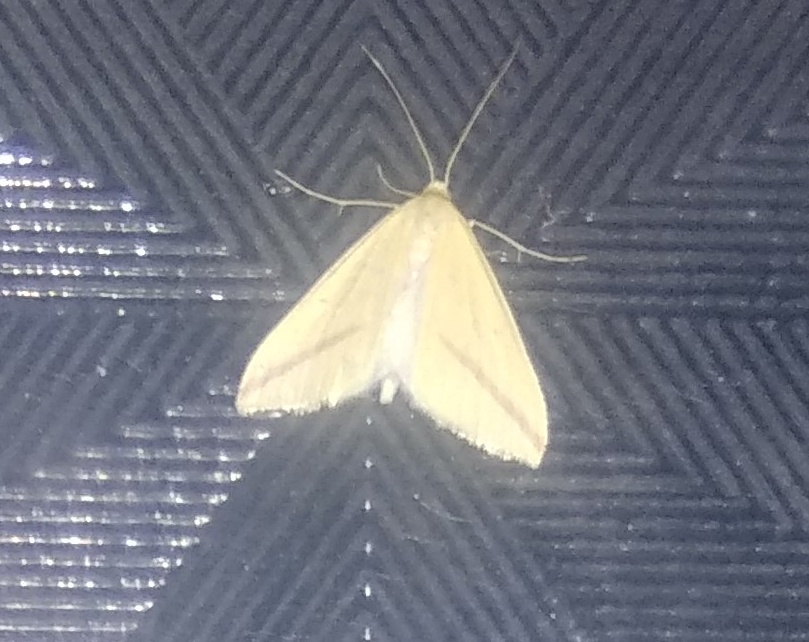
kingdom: Animalia
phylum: Arthropoda
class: Insecta
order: Lepidoptera
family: Geometridae
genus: Rhodometra
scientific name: Rhodometra sacraria
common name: Vestal
